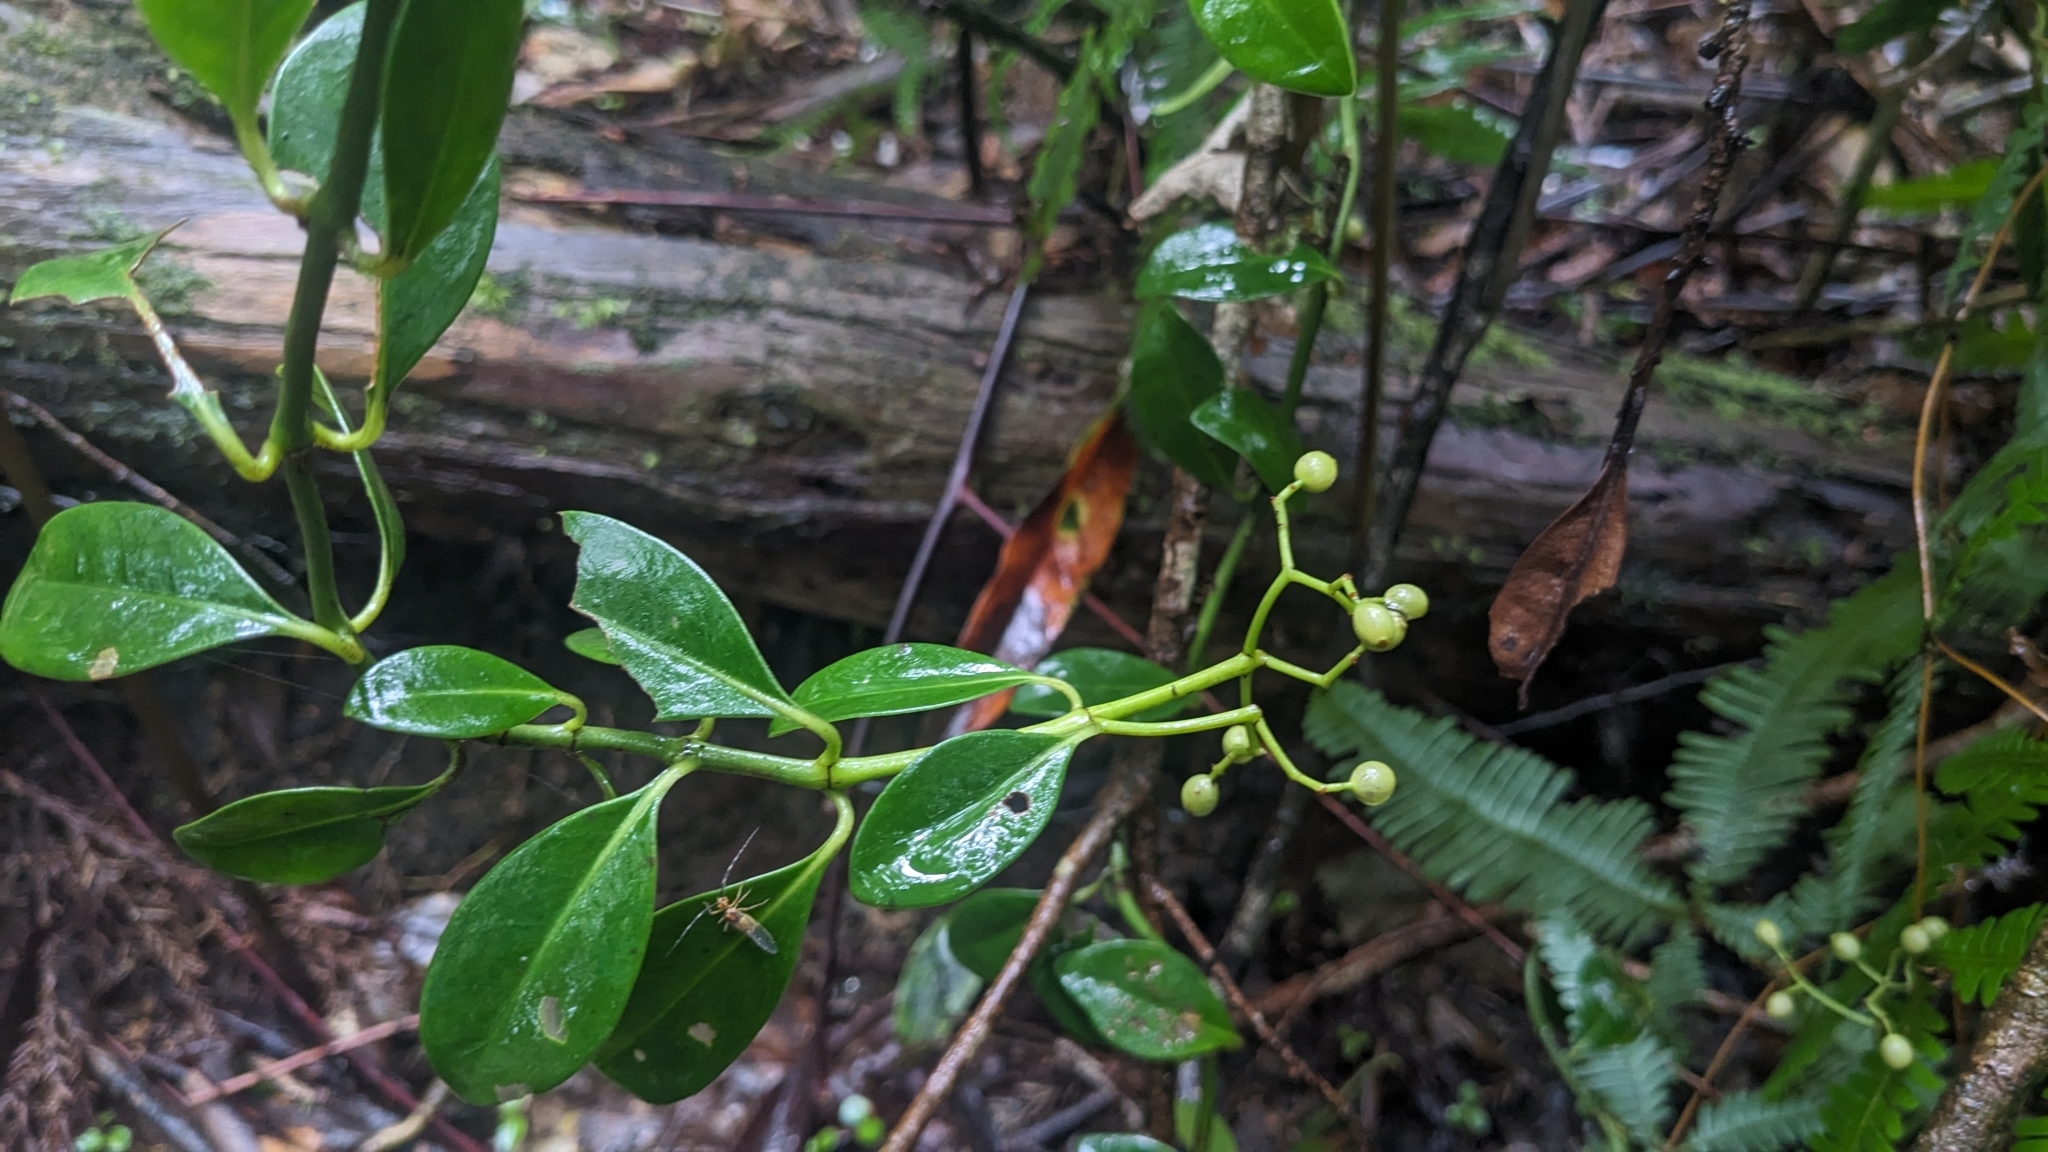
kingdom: Plantae
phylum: Tracheophyta
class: Magnoliopsida
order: Gentianales
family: Rubiaceae
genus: Psychotria
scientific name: Psychotria serpens
